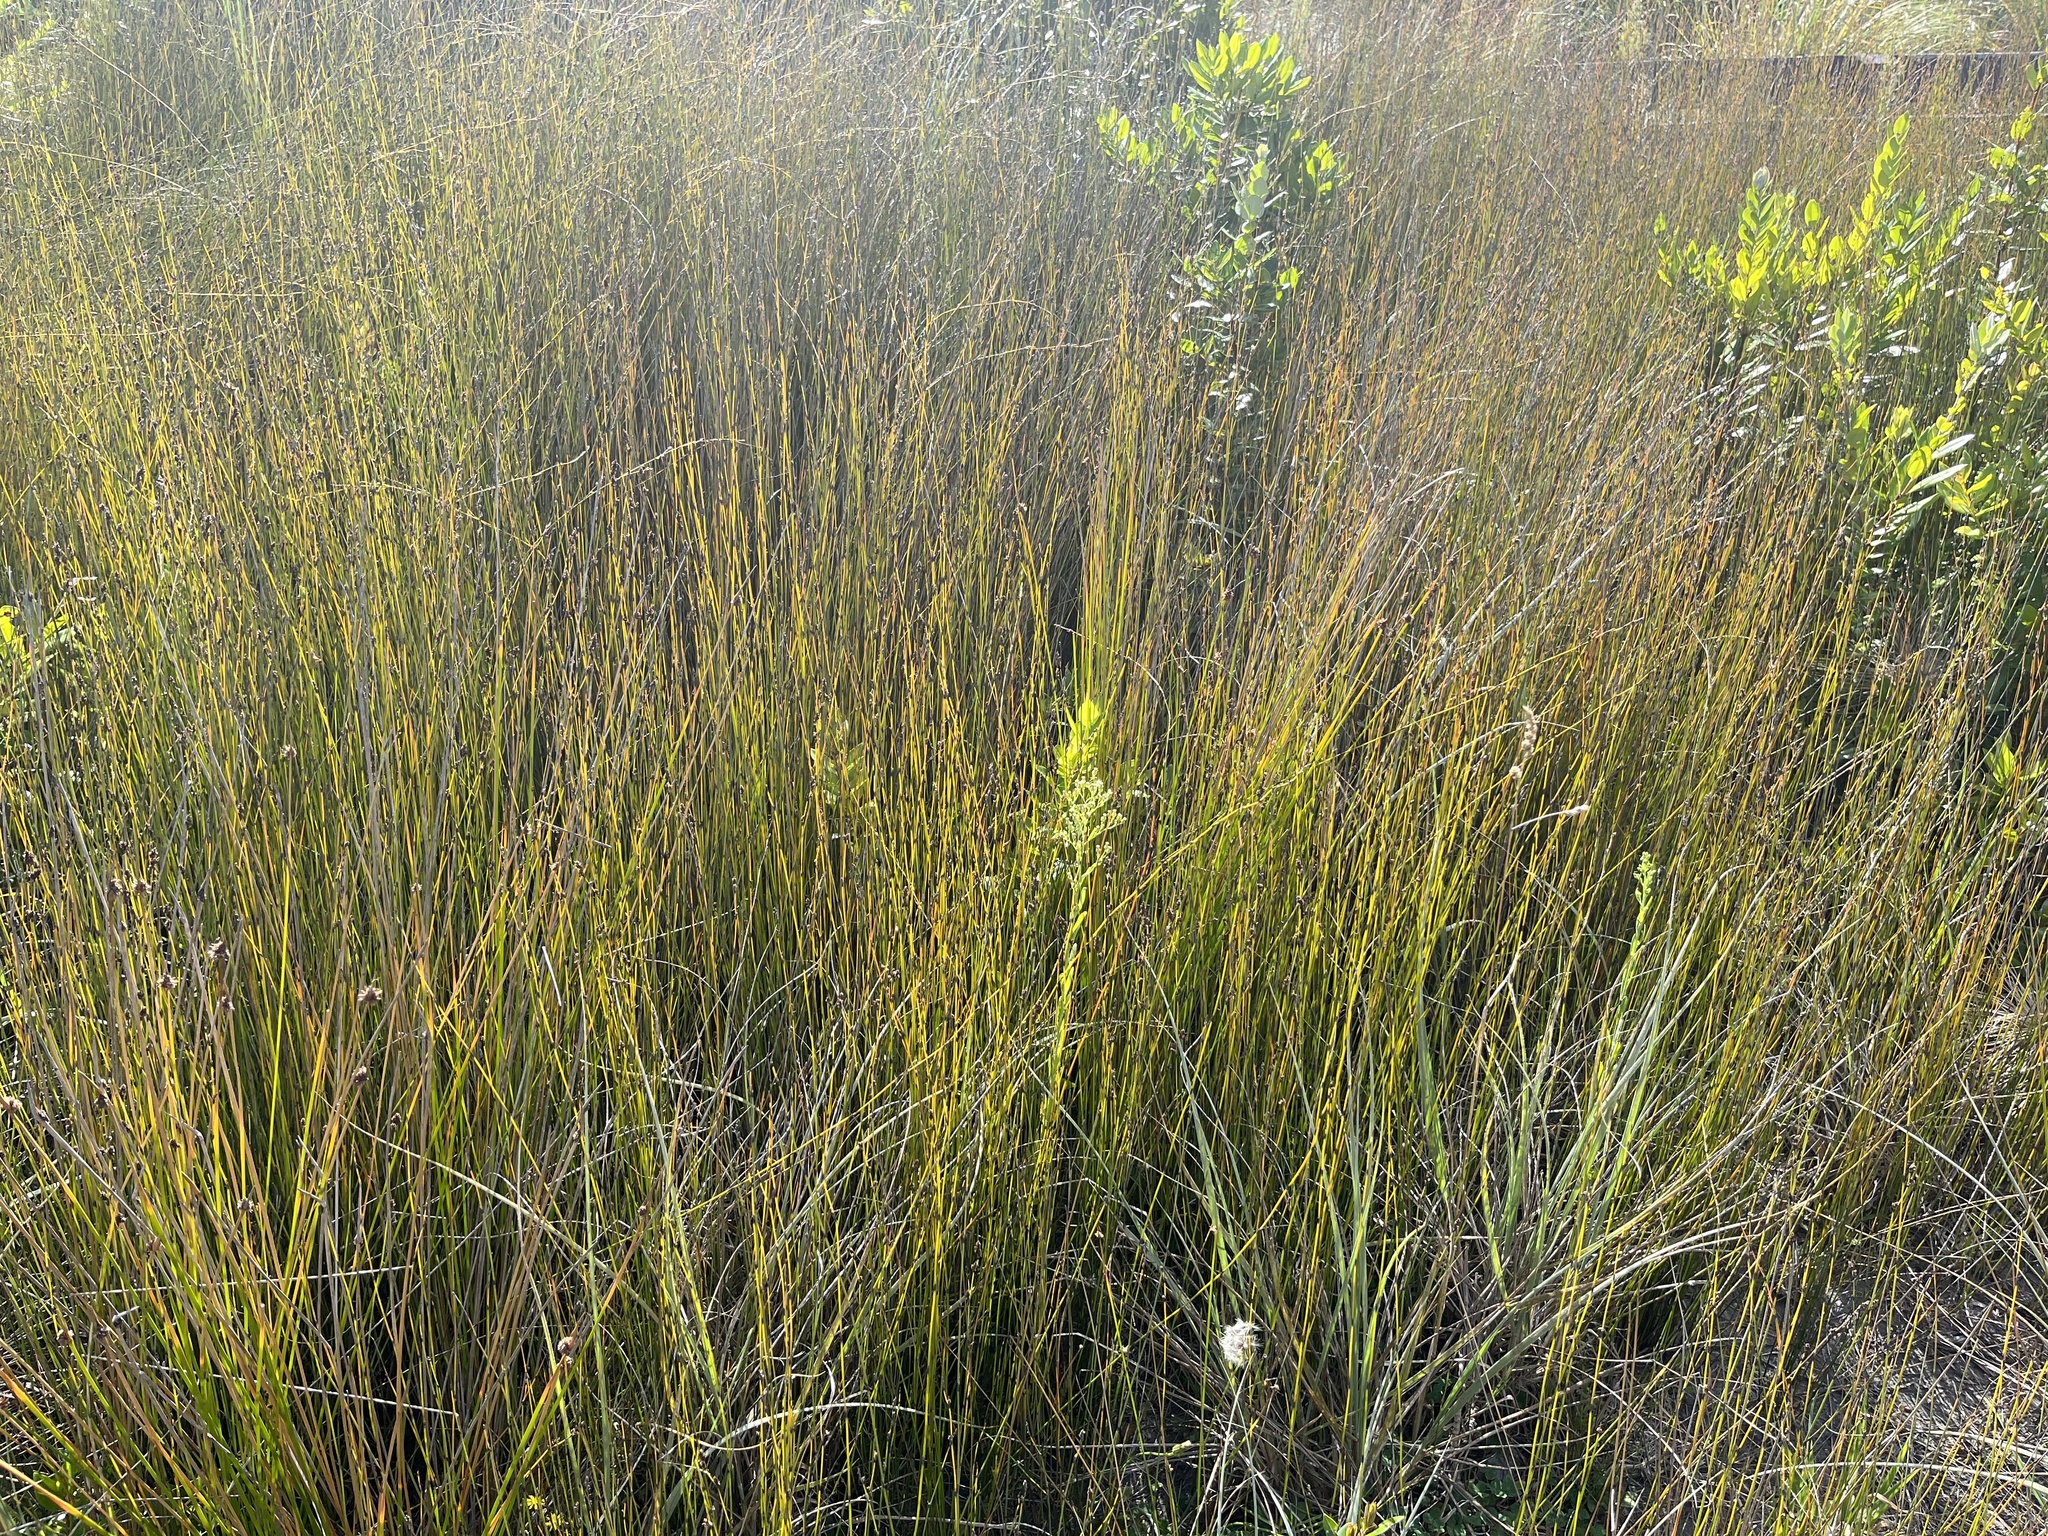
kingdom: Plantae
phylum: Tracheophyta
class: Liliopsida
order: Poales
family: Restionaceae
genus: Apodasmia
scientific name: Apodasmia similis
